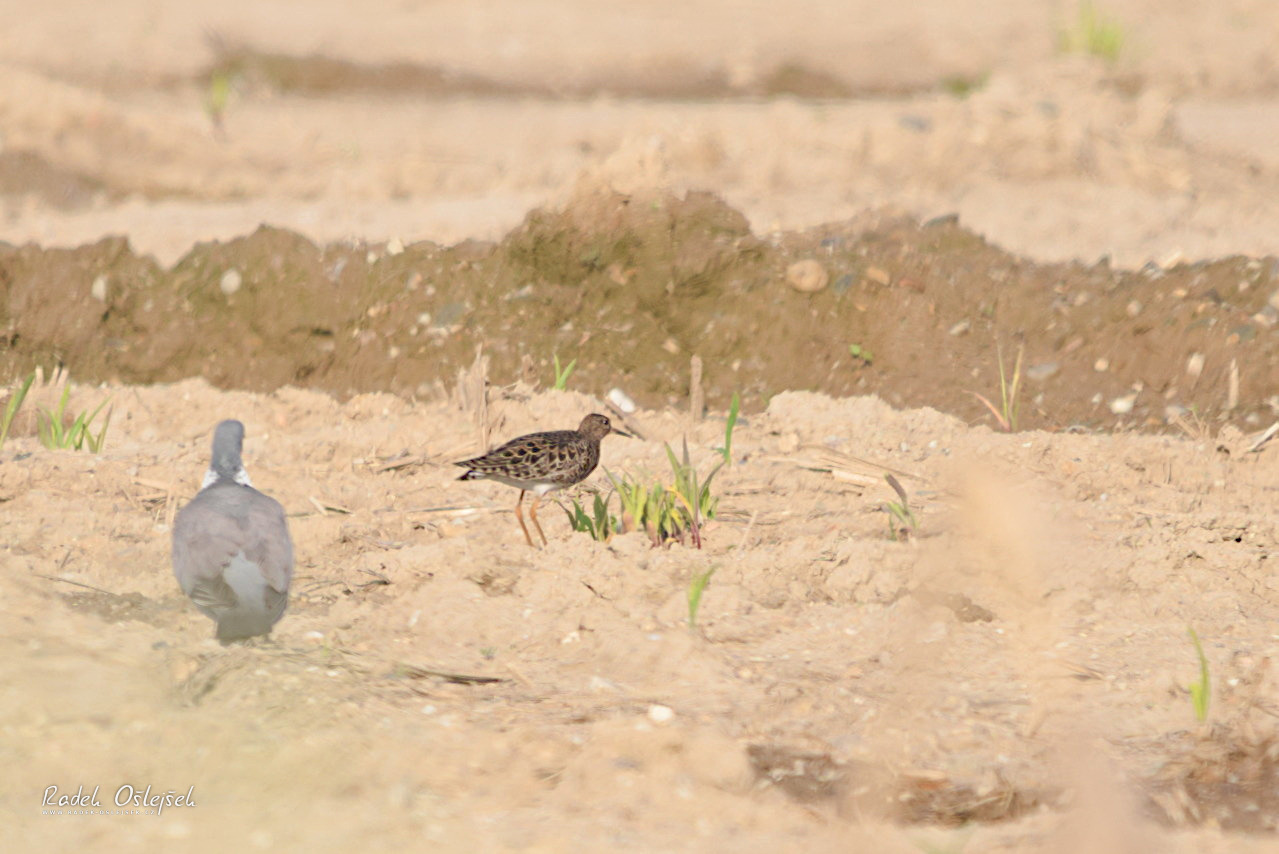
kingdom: Animalia
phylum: Chordata
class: Aves
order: Charadriiformes
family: Scolopacidae
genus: Calidris
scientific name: Calidris pugnax
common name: Ruff
